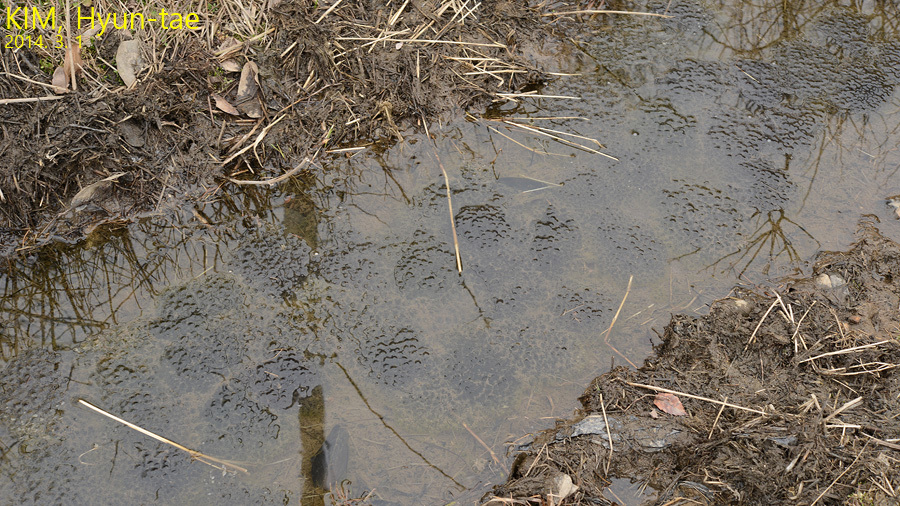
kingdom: Animalia
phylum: Chordata
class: Amphibia
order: Anura
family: Ranidae
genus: Rana
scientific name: Rana uenoi
